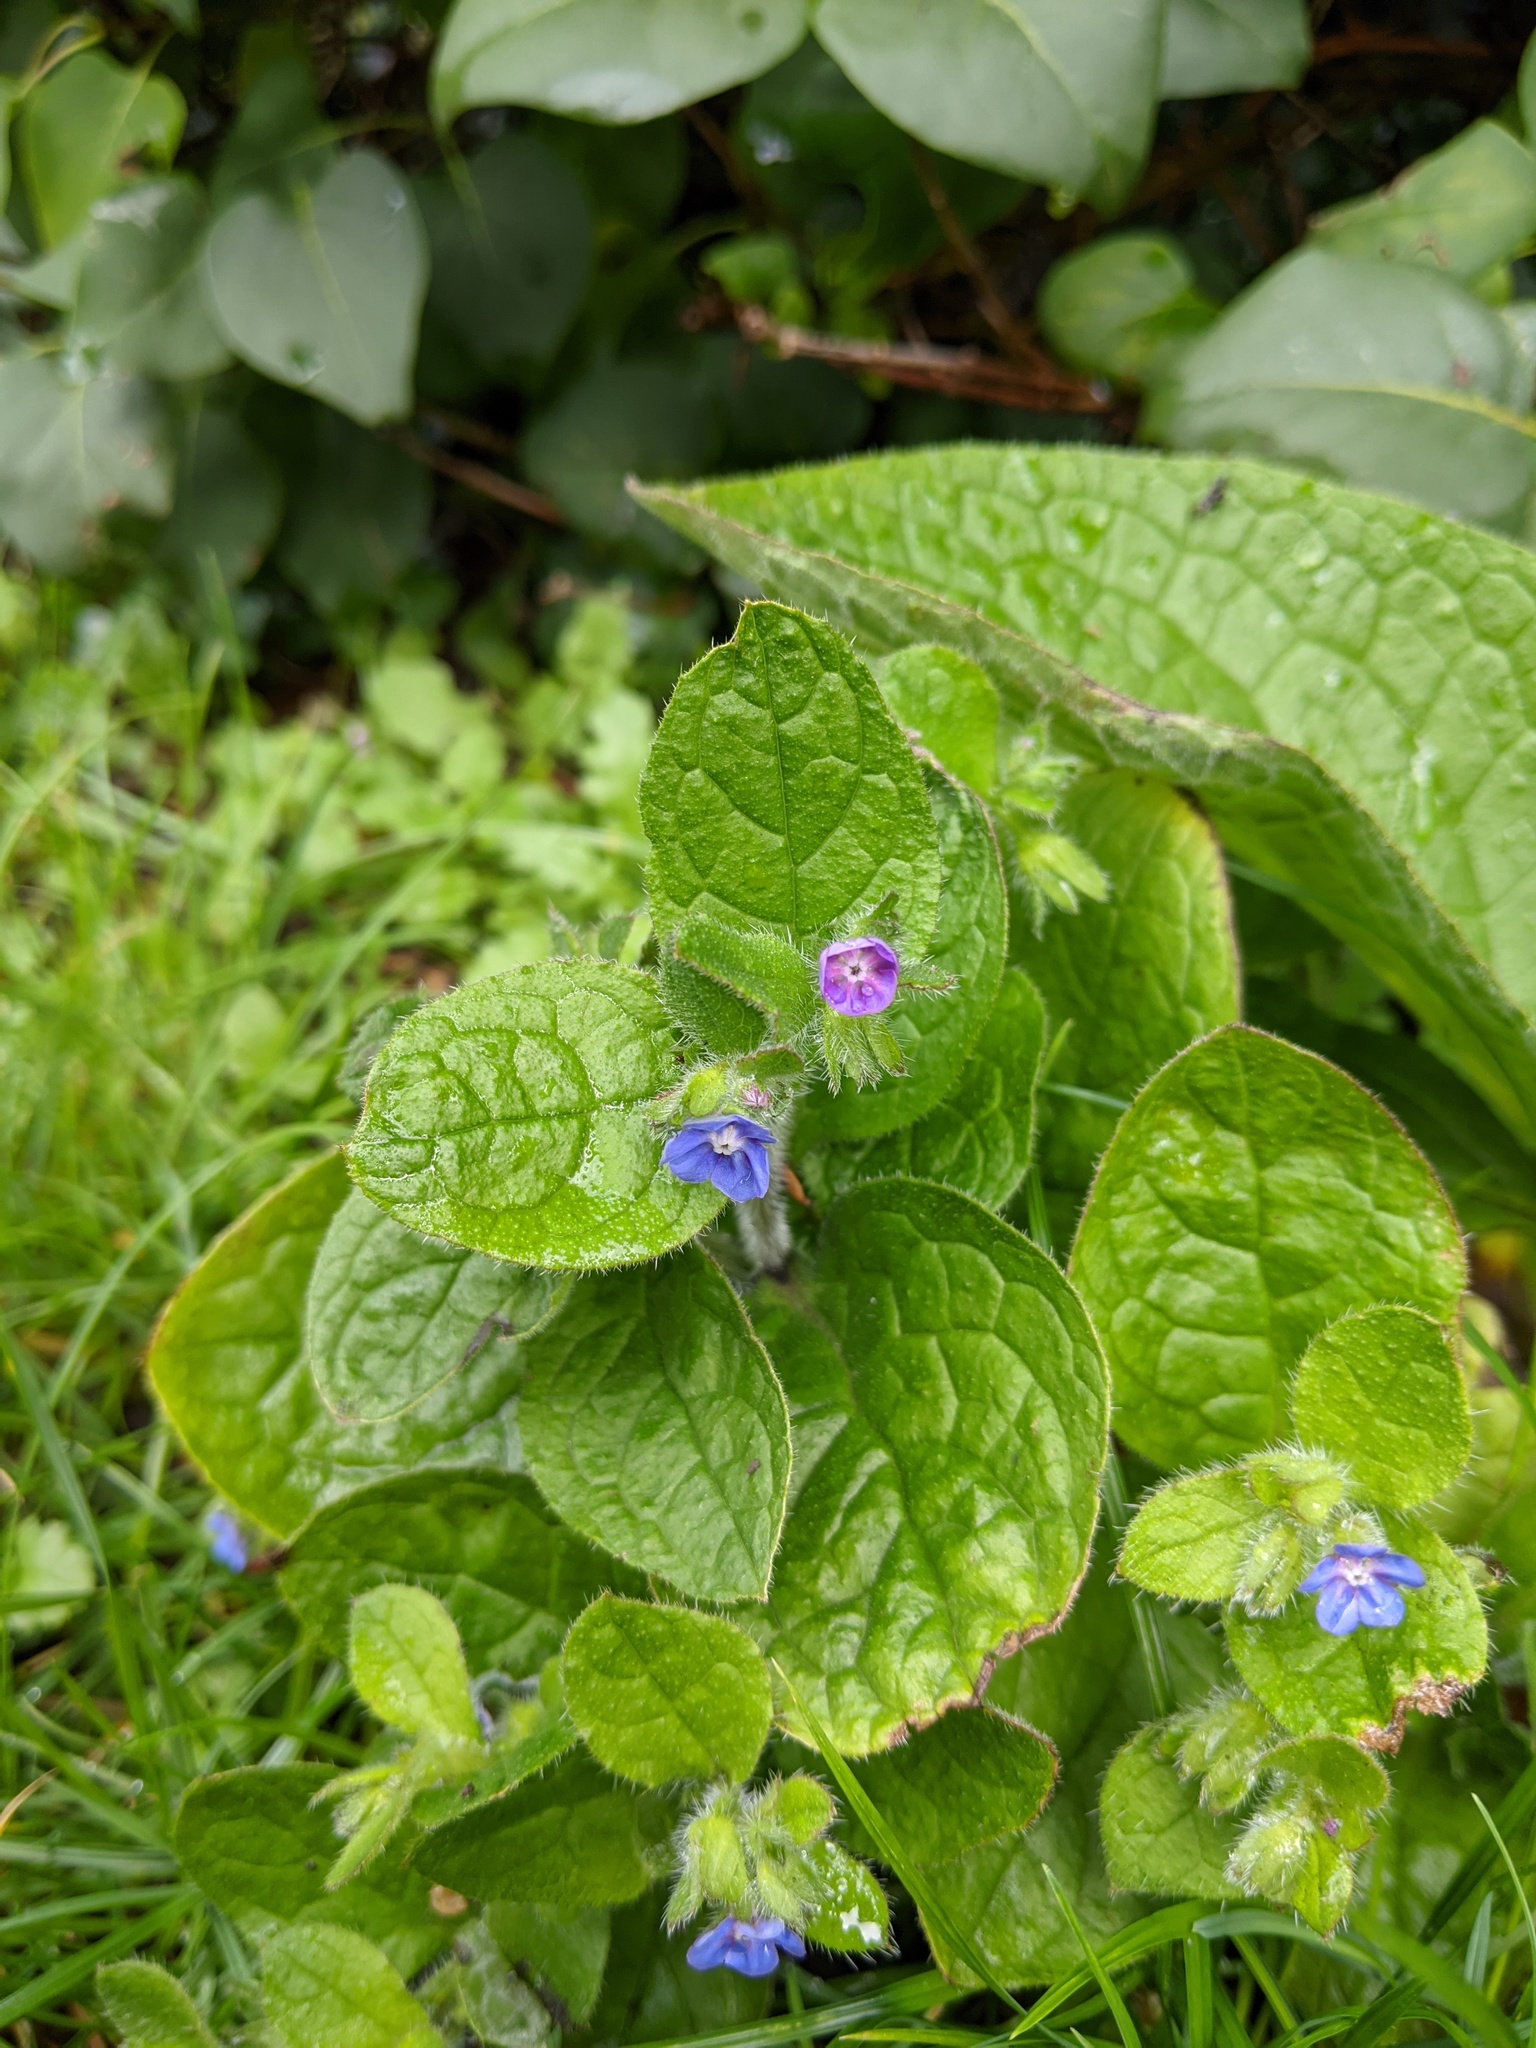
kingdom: Plantae
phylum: Tracheophyta
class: Magnoliopsida
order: Boraginales
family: Boraginaceae
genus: Pentaglottis
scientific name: Pentaglottis sempervirens
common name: Green alkanet
